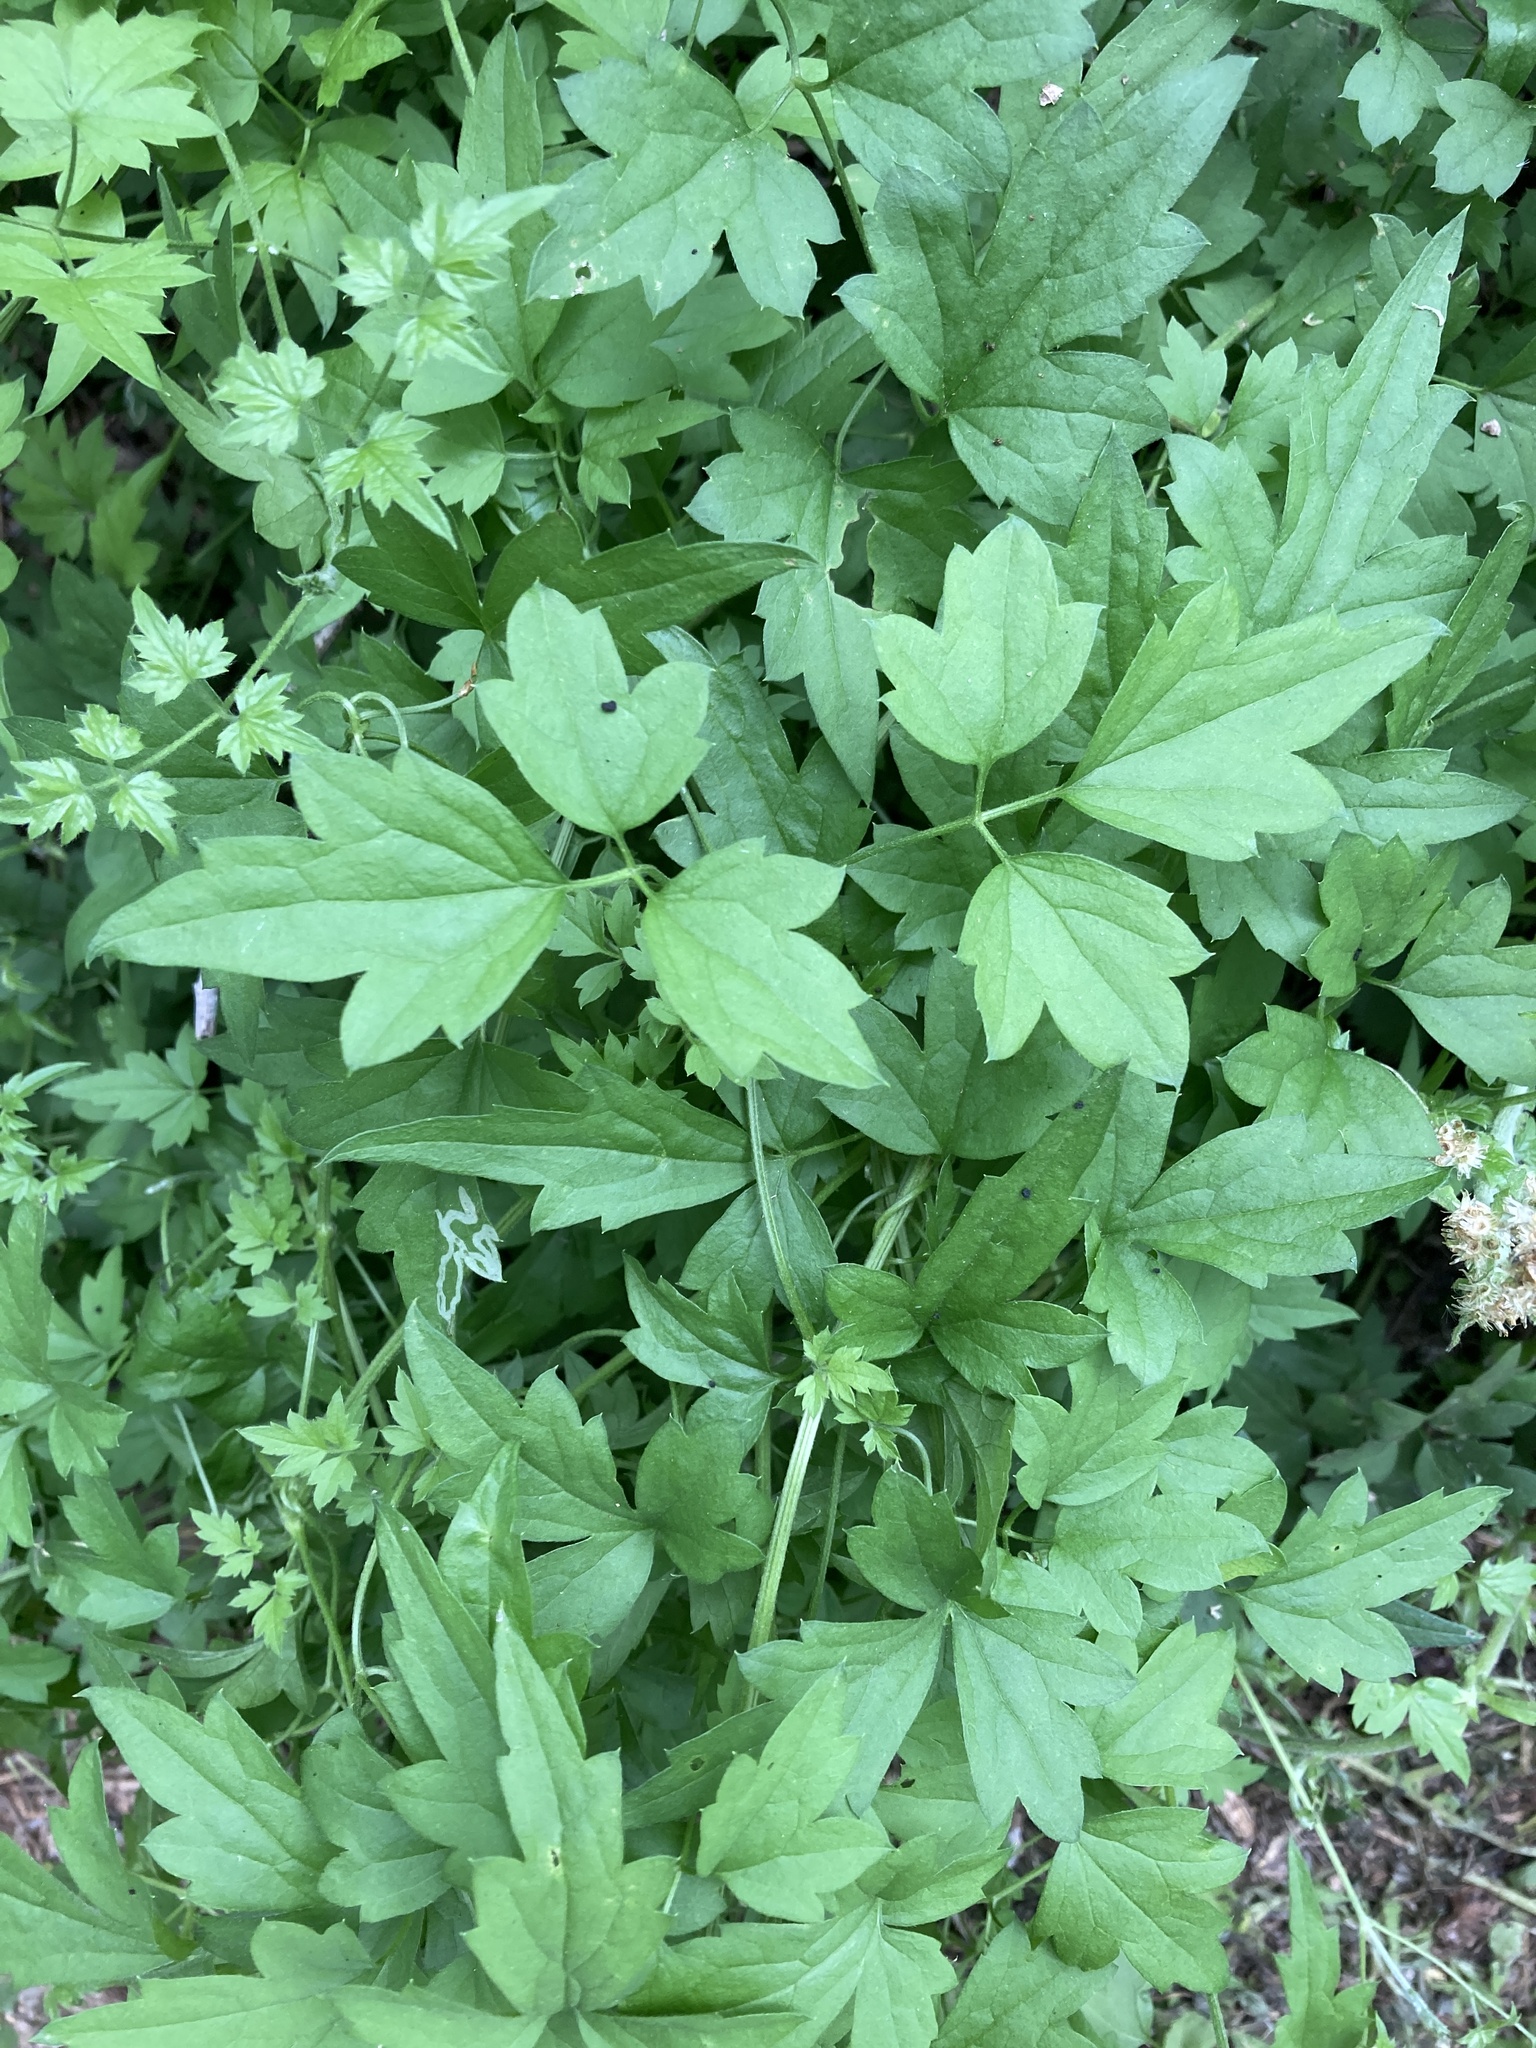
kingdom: Plantae
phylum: Tracheophyta
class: Magnoliopsida
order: Ranunculales
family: Ranunculaceae
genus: Clematis
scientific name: Clematis drummondii
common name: Texas virgin's bower
